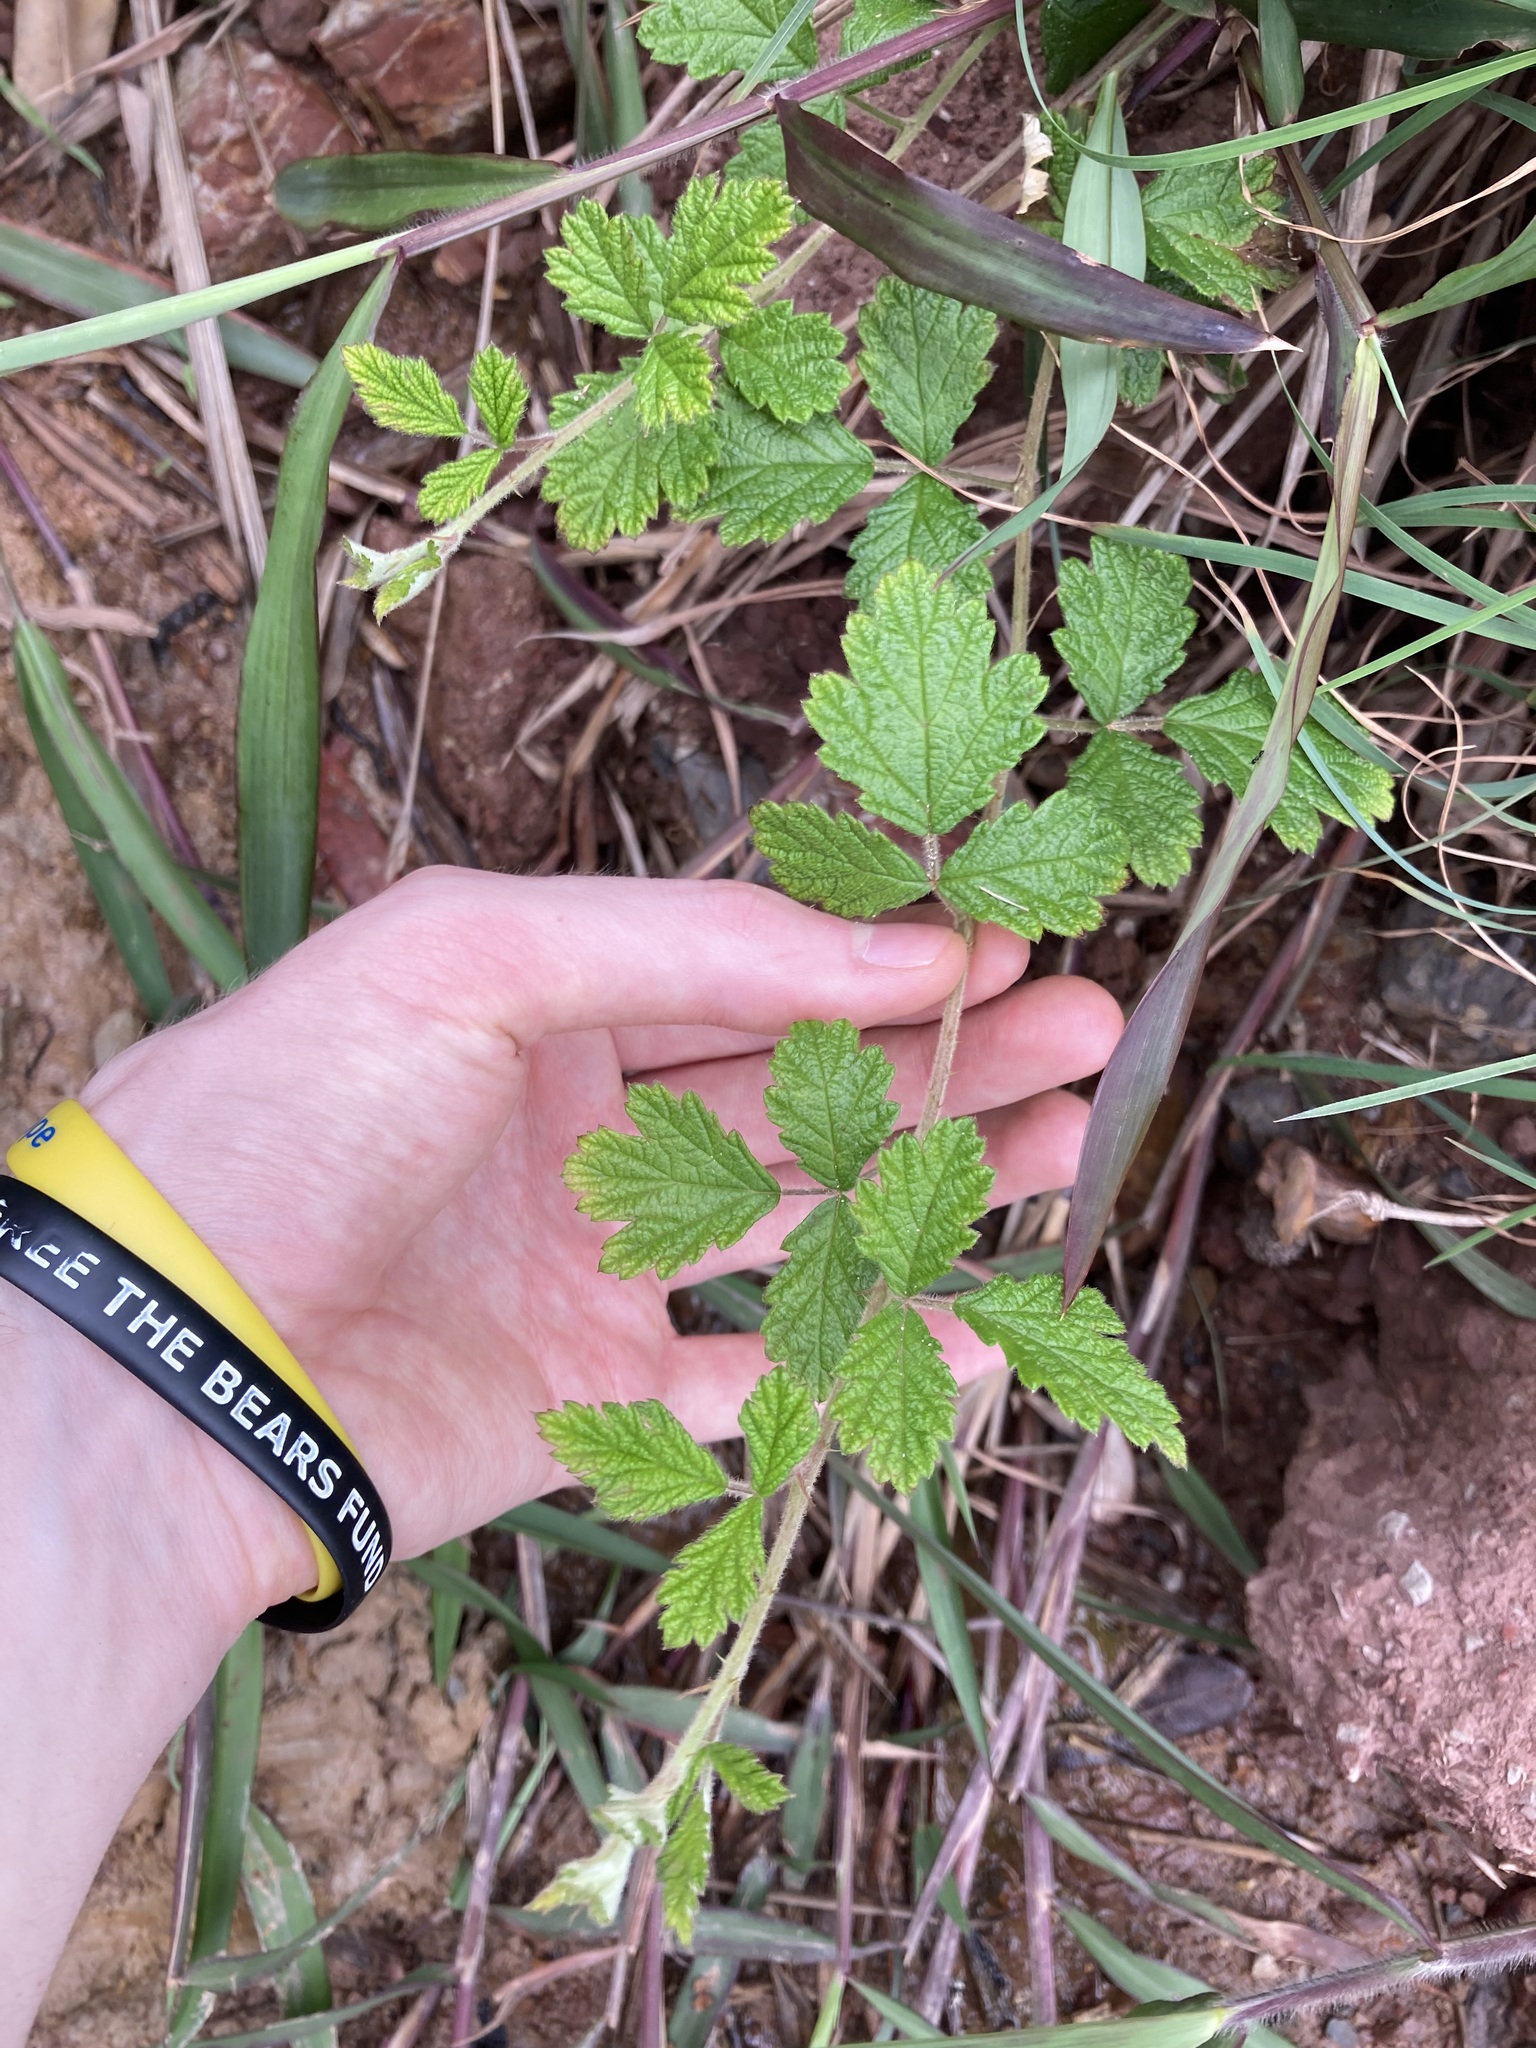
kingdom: Plantae
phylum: Tracheophyta
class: Magnoliopsida
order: Rosales
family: Rosaceae
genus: Rubus
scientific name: Rubus parvifolius
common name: Threeleaf blackberry
